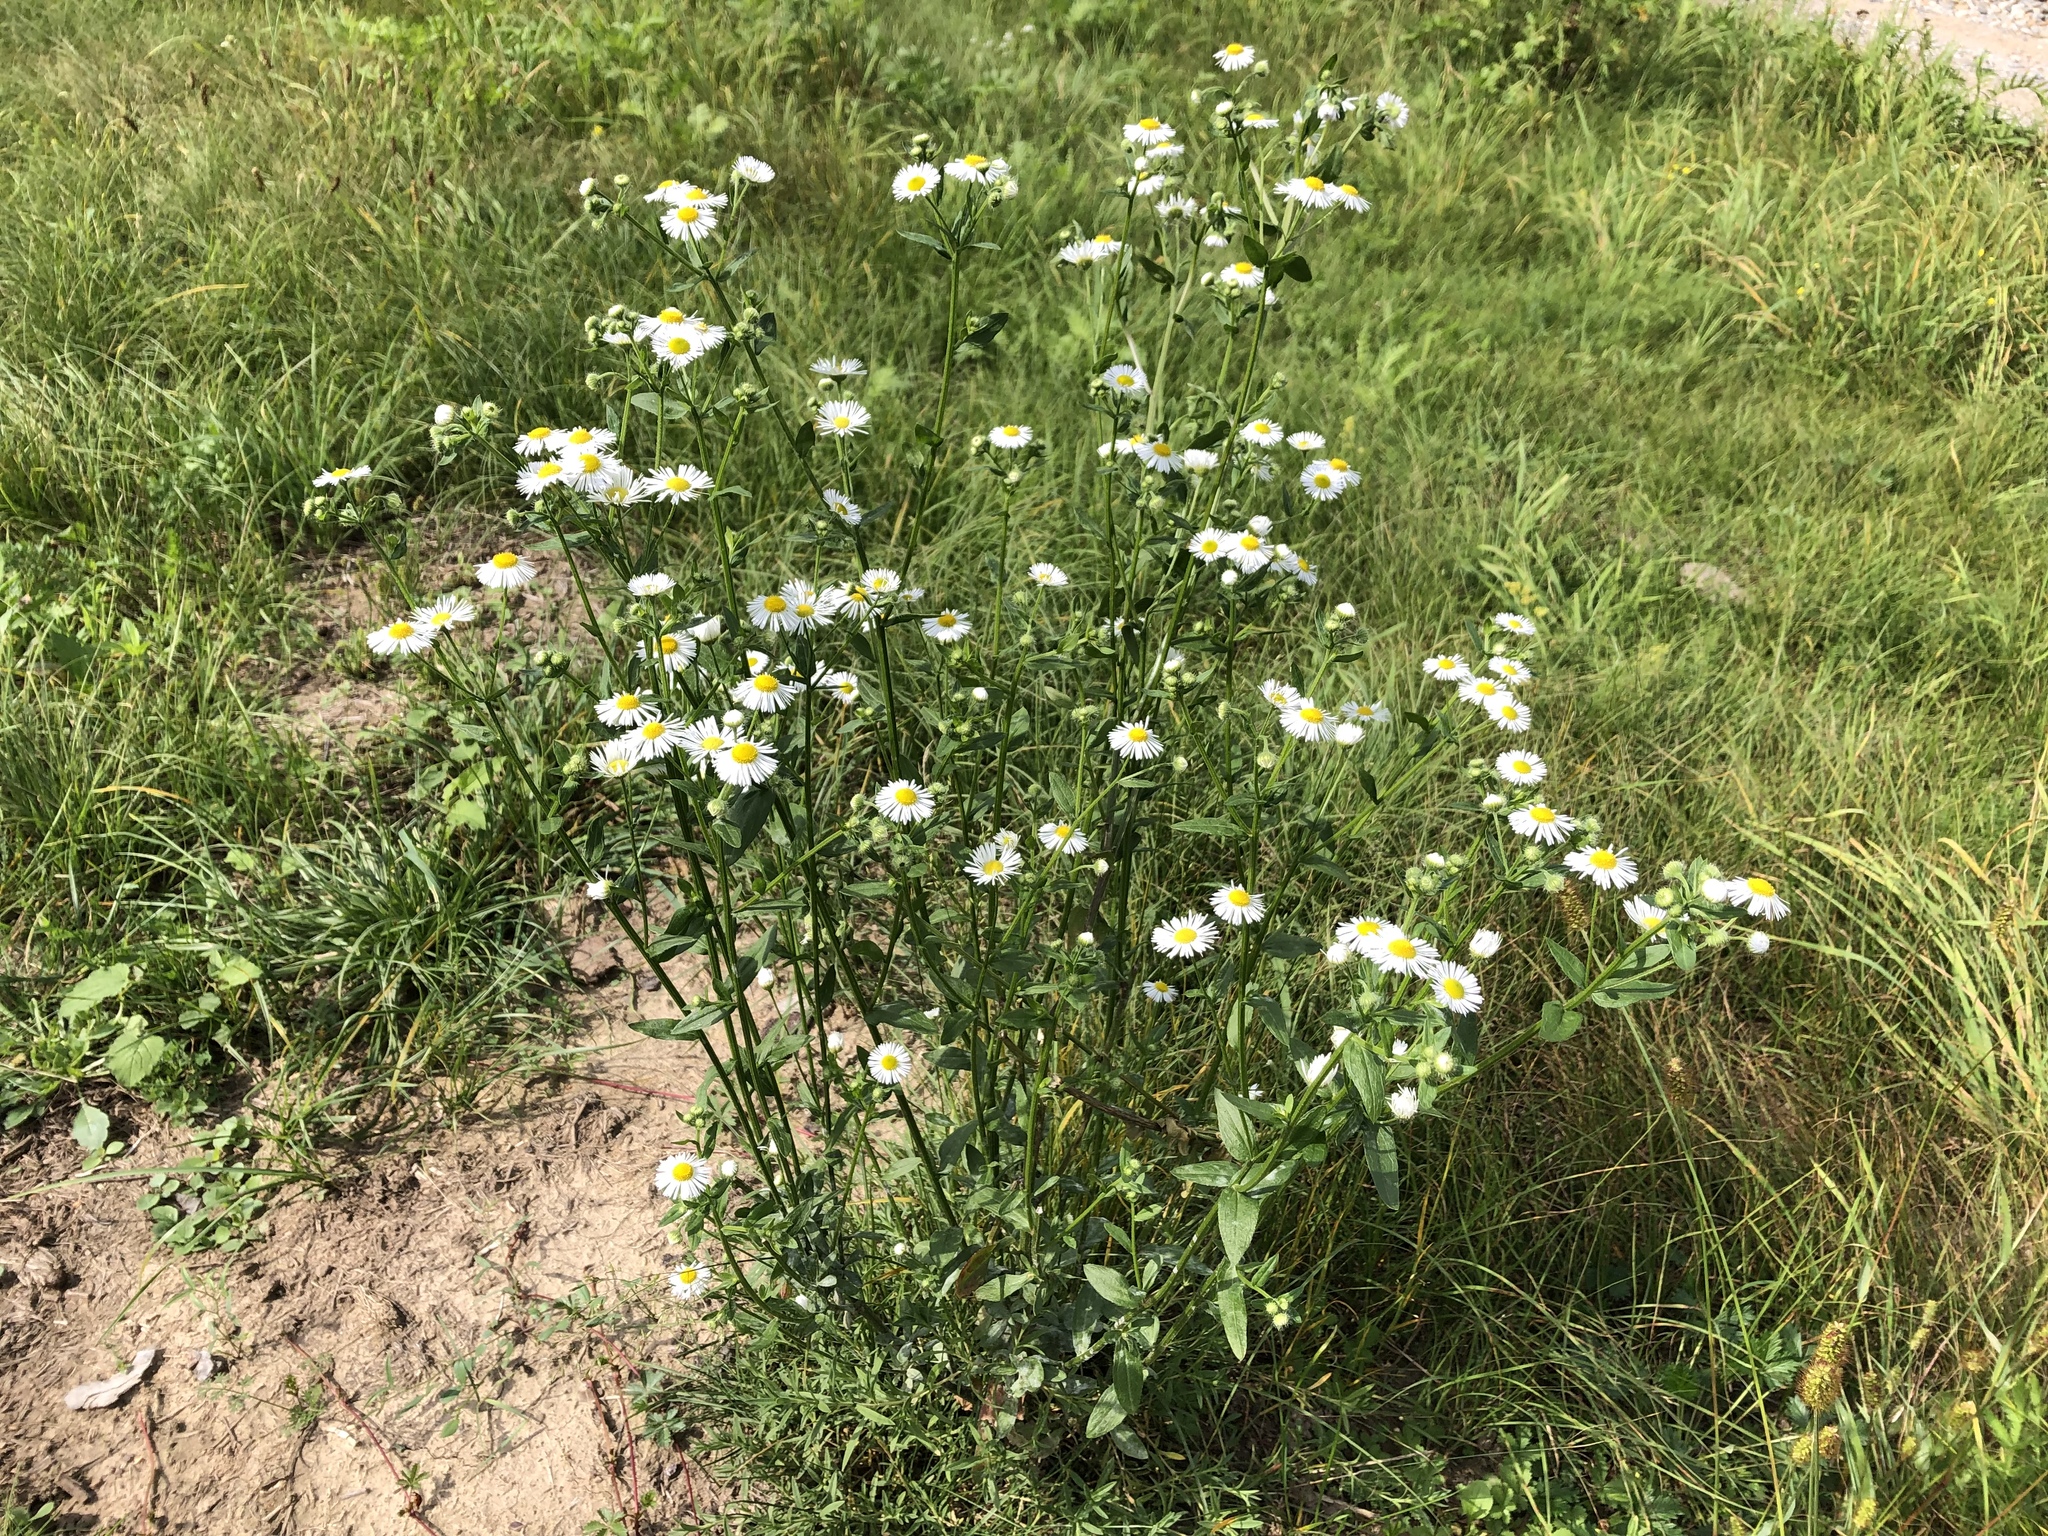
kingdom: Plantae
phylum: Tracheophyta
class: Magnoliopsida
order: Asterales
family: Asteraceae
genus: Erigeron
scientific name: Erigeron annuus
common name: Tall fleabane
